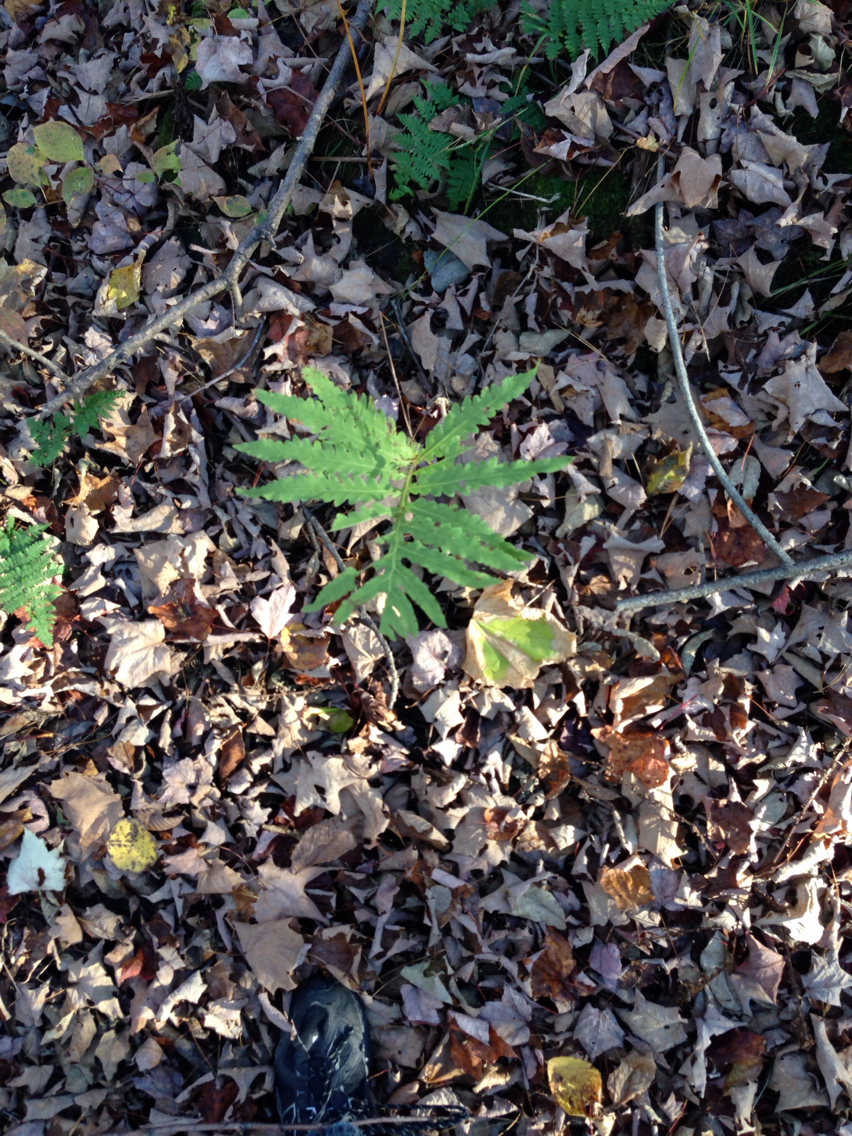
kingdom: Plantae
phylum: Tracheophyta
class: Polypodiopsida
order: Polypodiales
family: Onocleaceae
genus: Onoclea
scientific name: Onoclea sensibilis
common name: Sensitive fern
